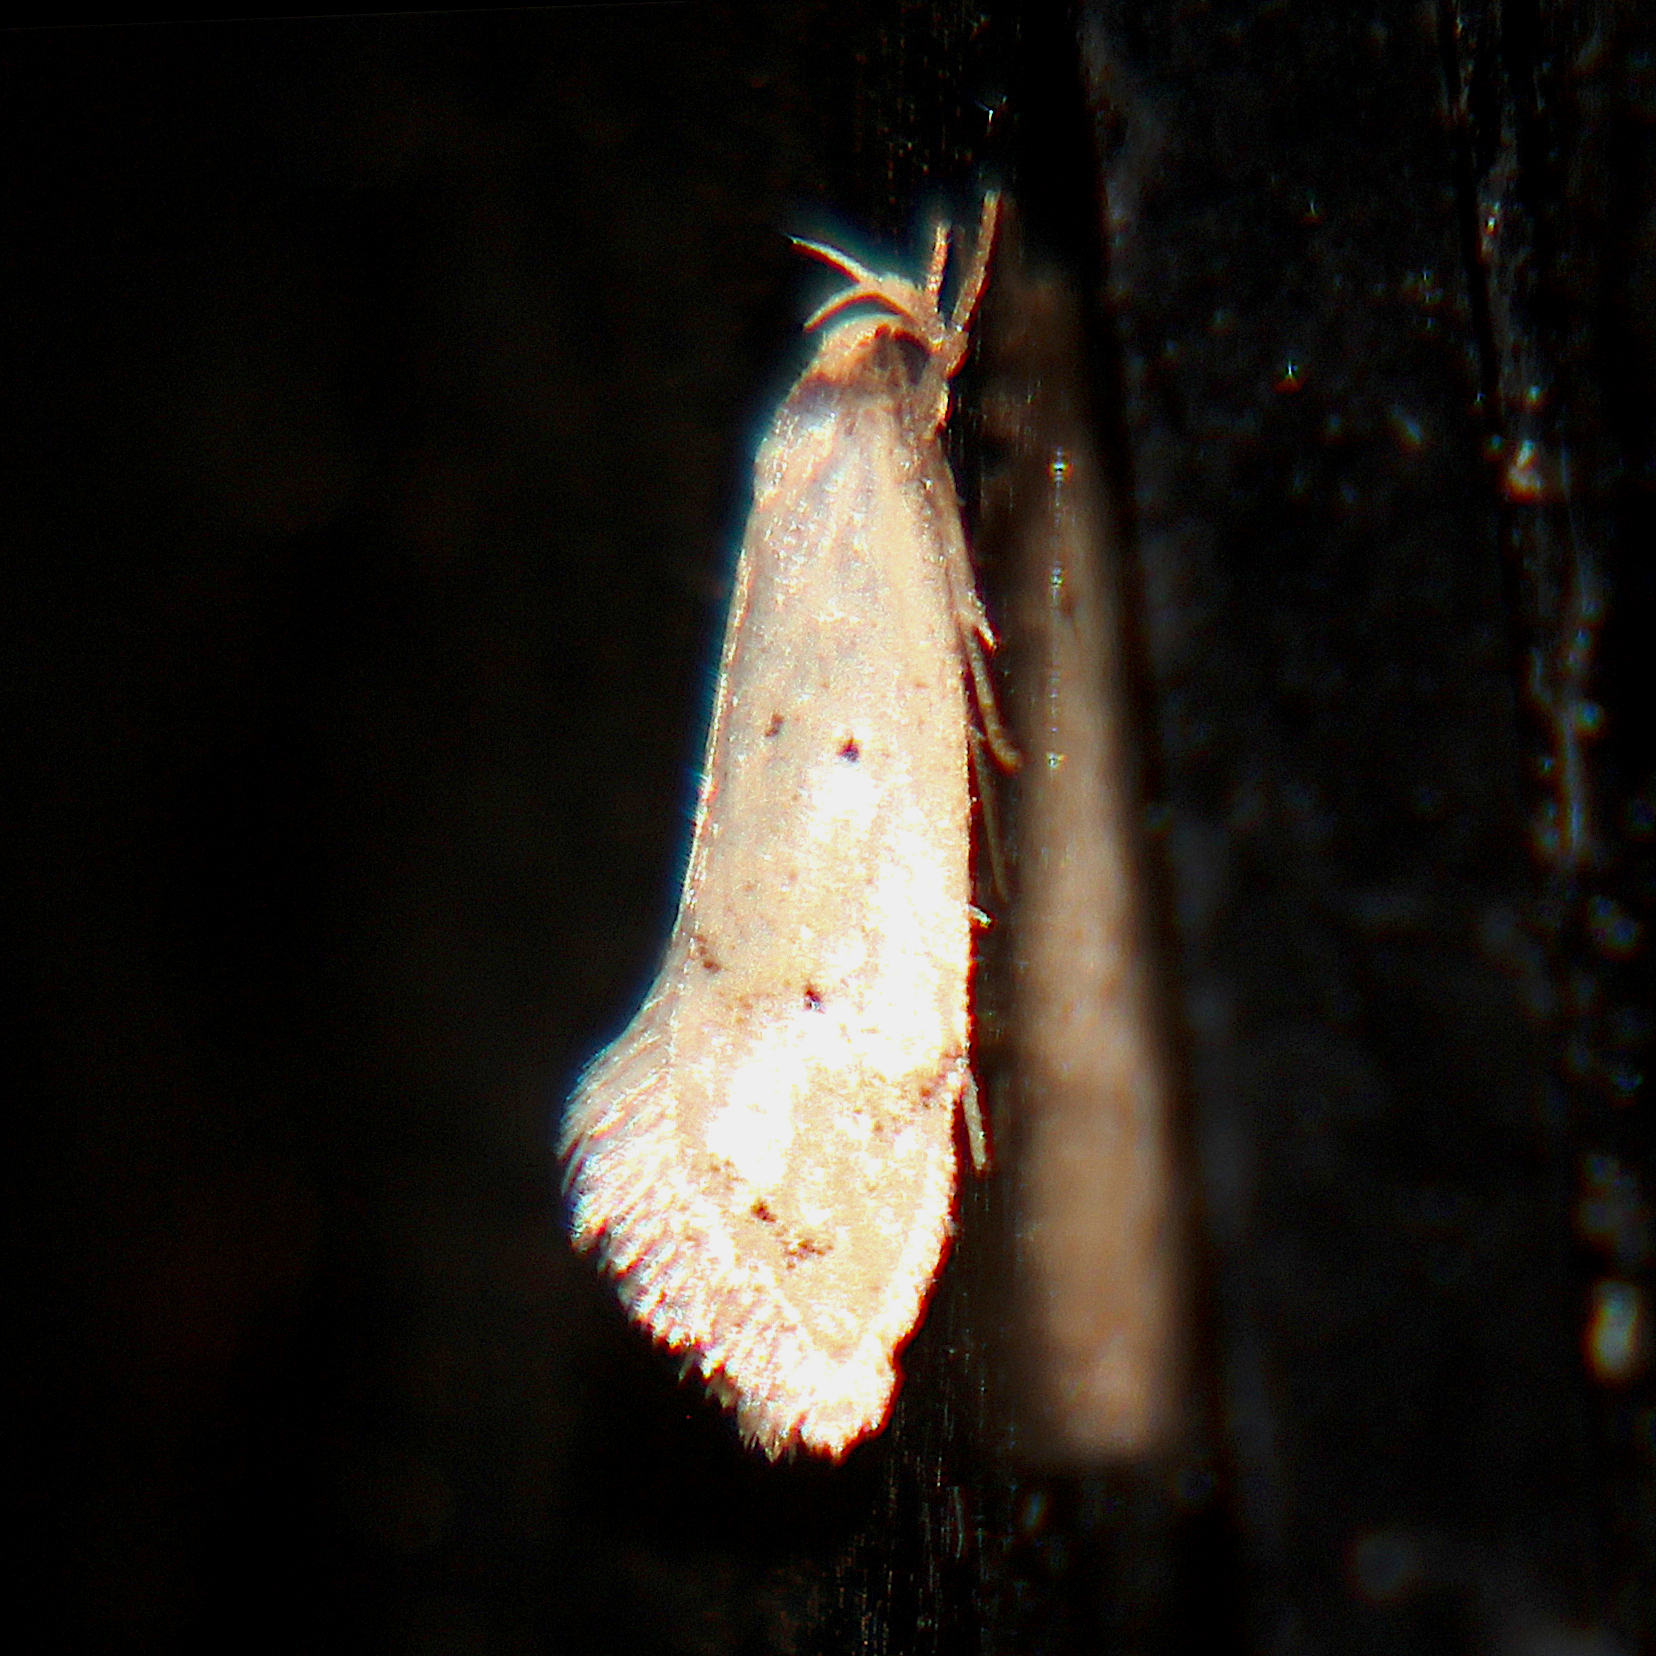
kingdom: Animalia
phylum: Arthropoda
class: Insecta
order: Lepidoptera
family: Oecophoridae
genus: Atalopsis
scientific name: Atalopsis
